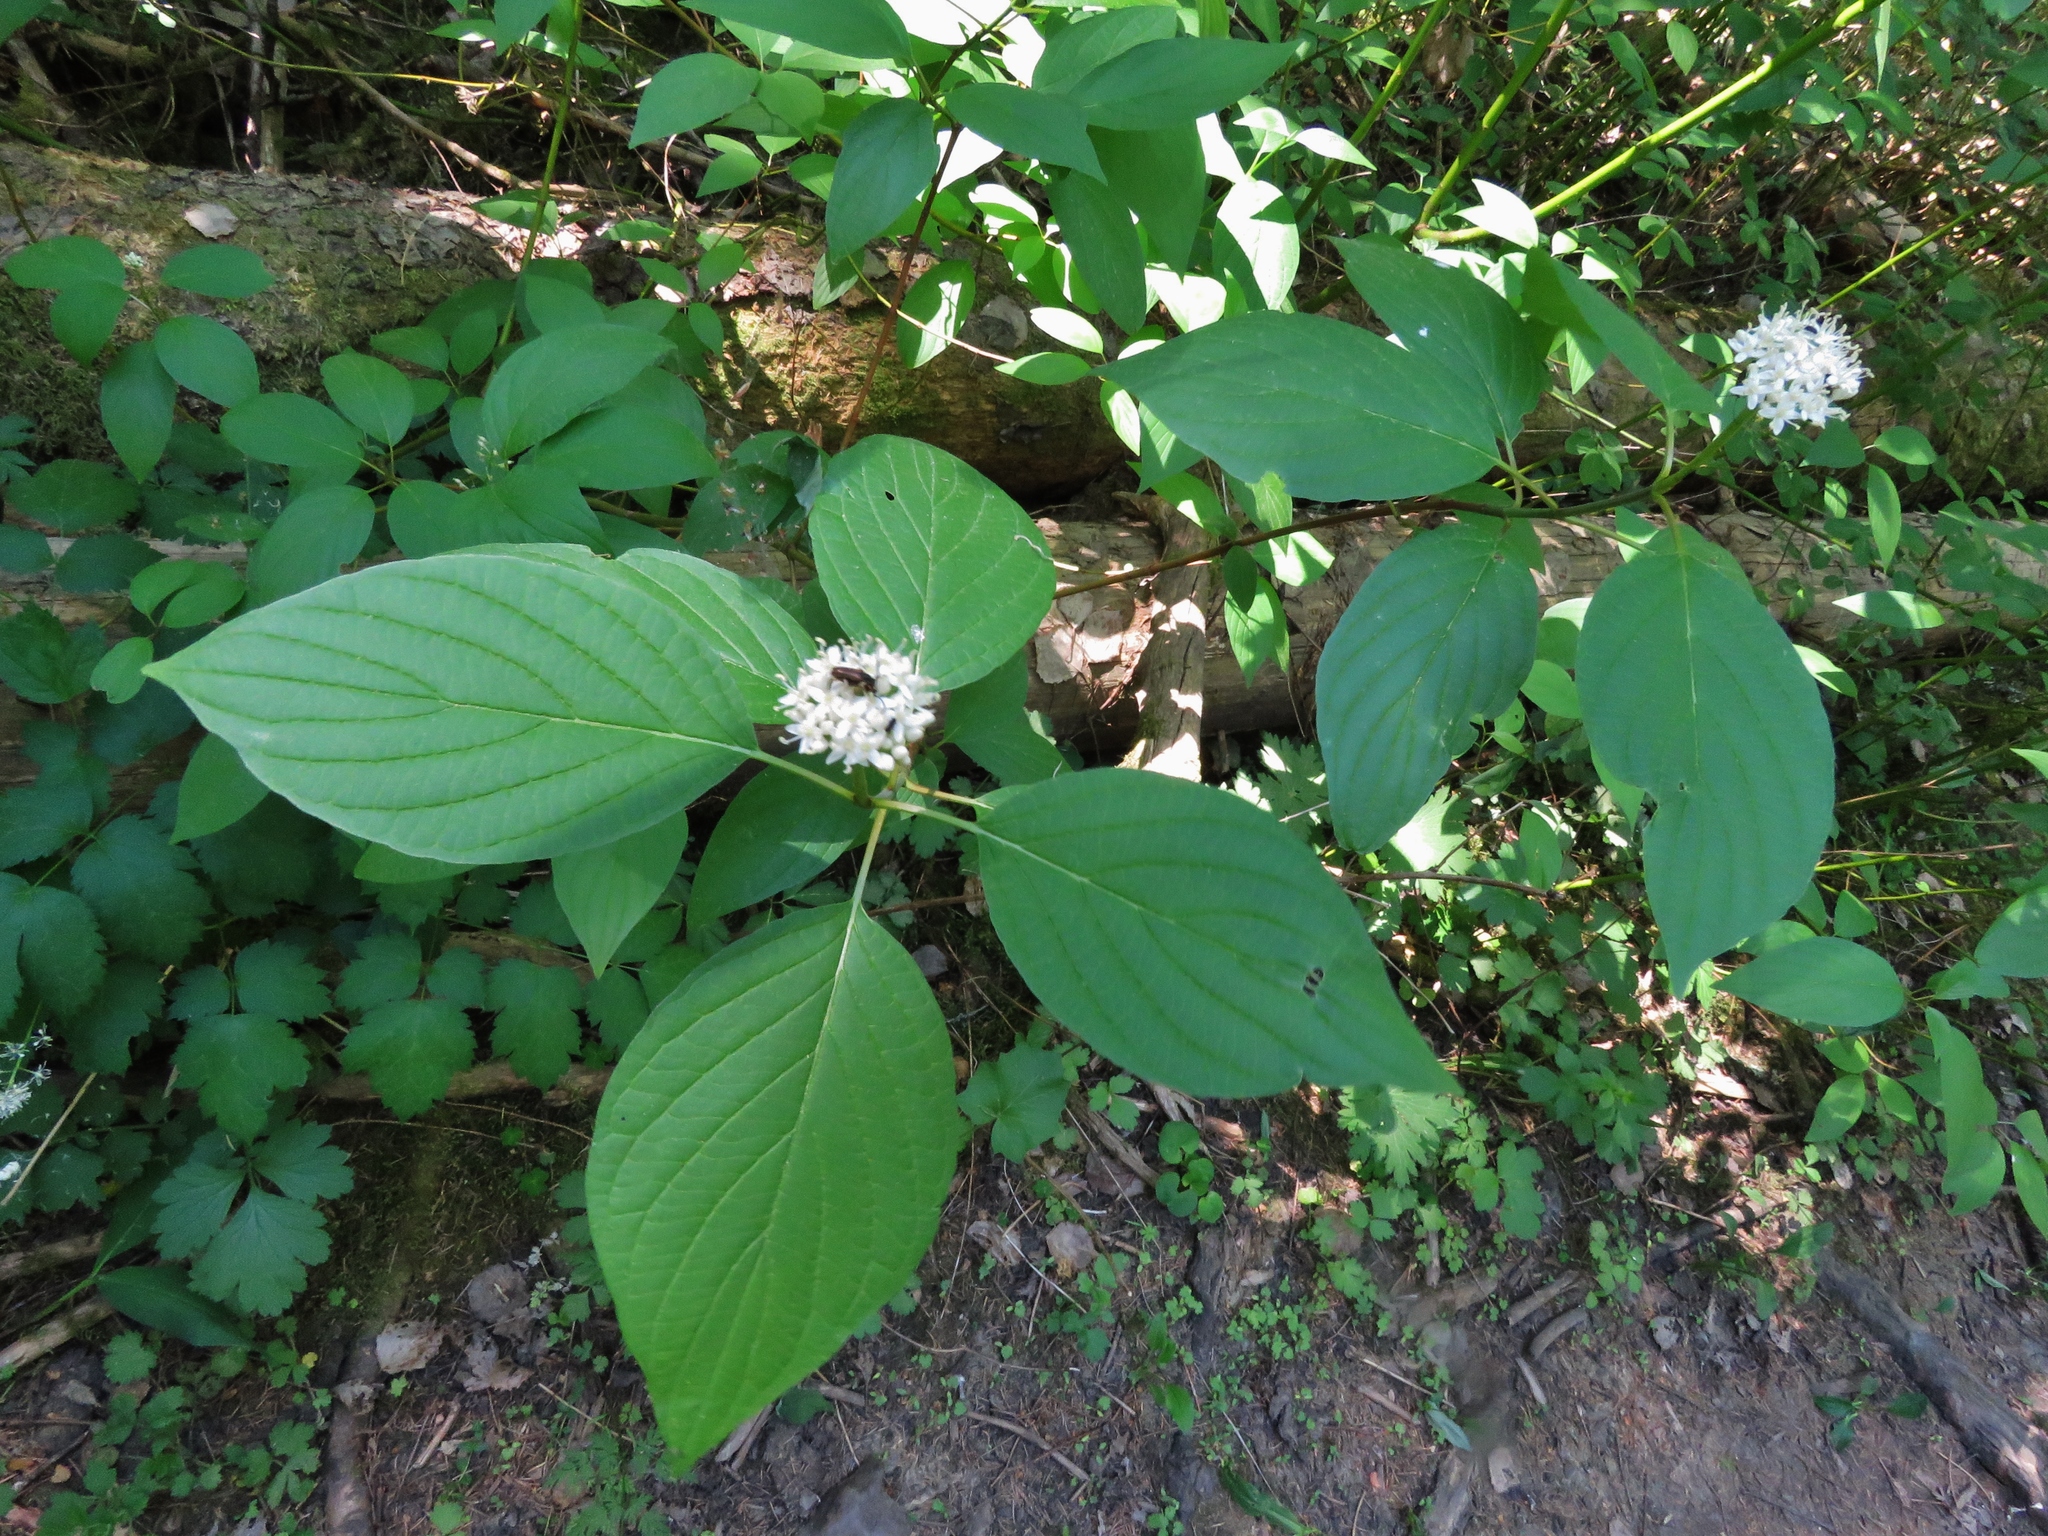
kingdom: Plantae
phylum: Tracheophyta
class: Magnoliopsida
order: Cornales
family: Cornaceae
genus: Cornus
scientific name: Cornus sanguinea
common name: Dogwood
